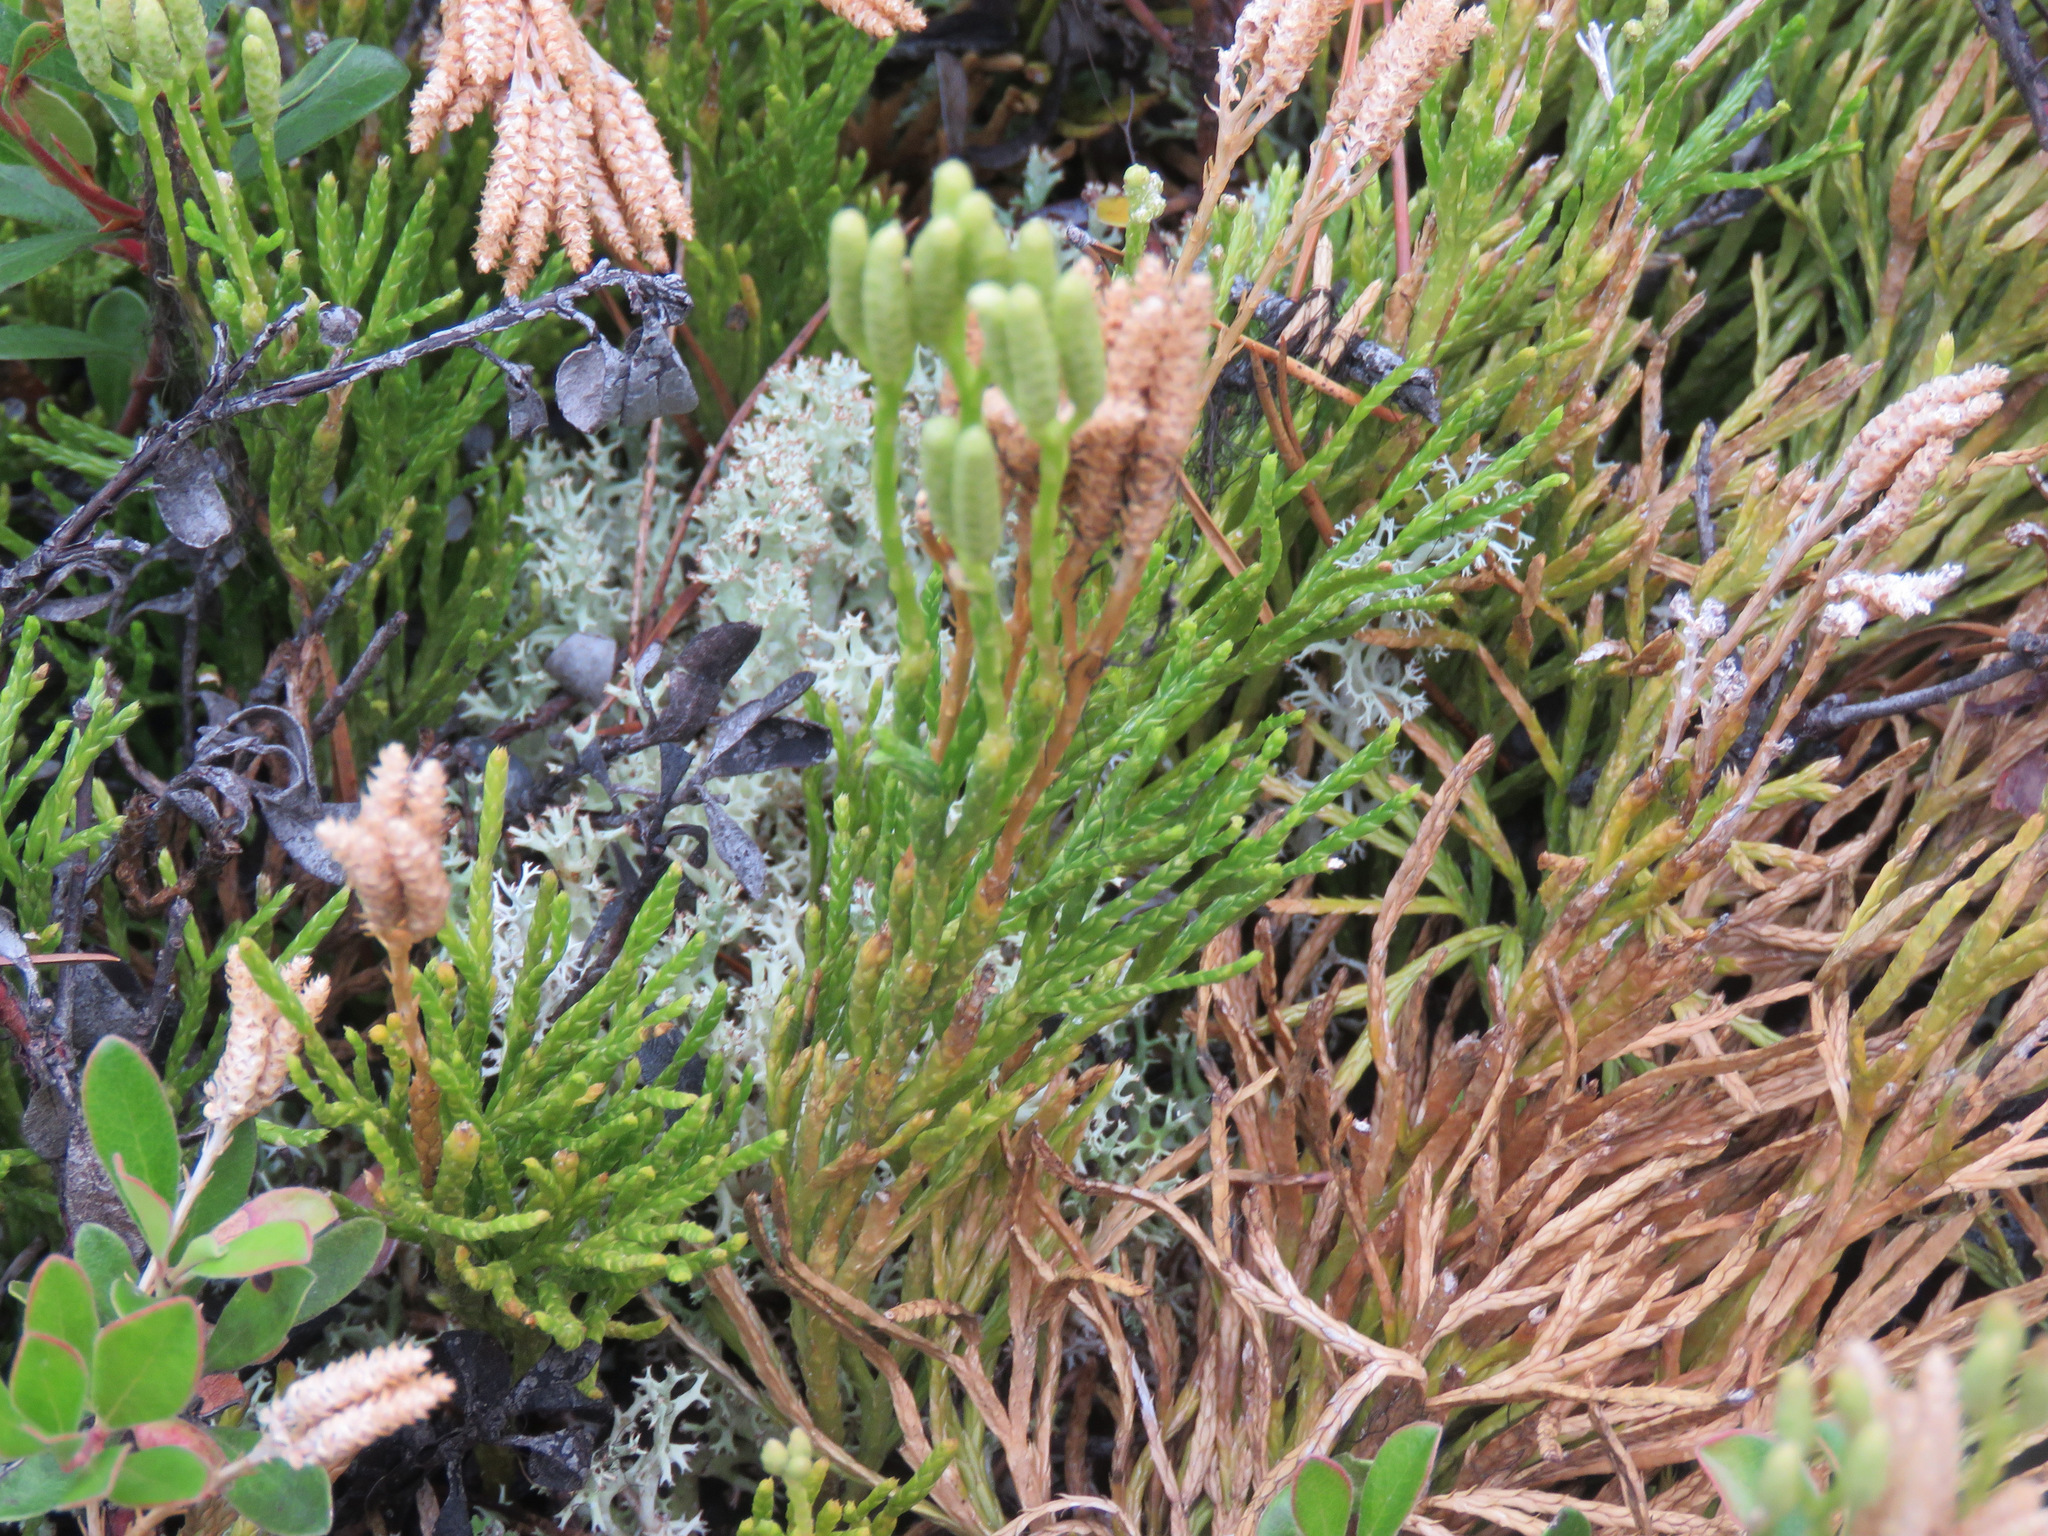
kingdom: Plantae
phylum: Tracheophyta
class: Lycopodiopsida
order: Lycopodiales
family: Lycopodiaceae
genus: Diphasiastrum
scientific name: Diphasiastrum complanatum
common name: Northern running-pine
